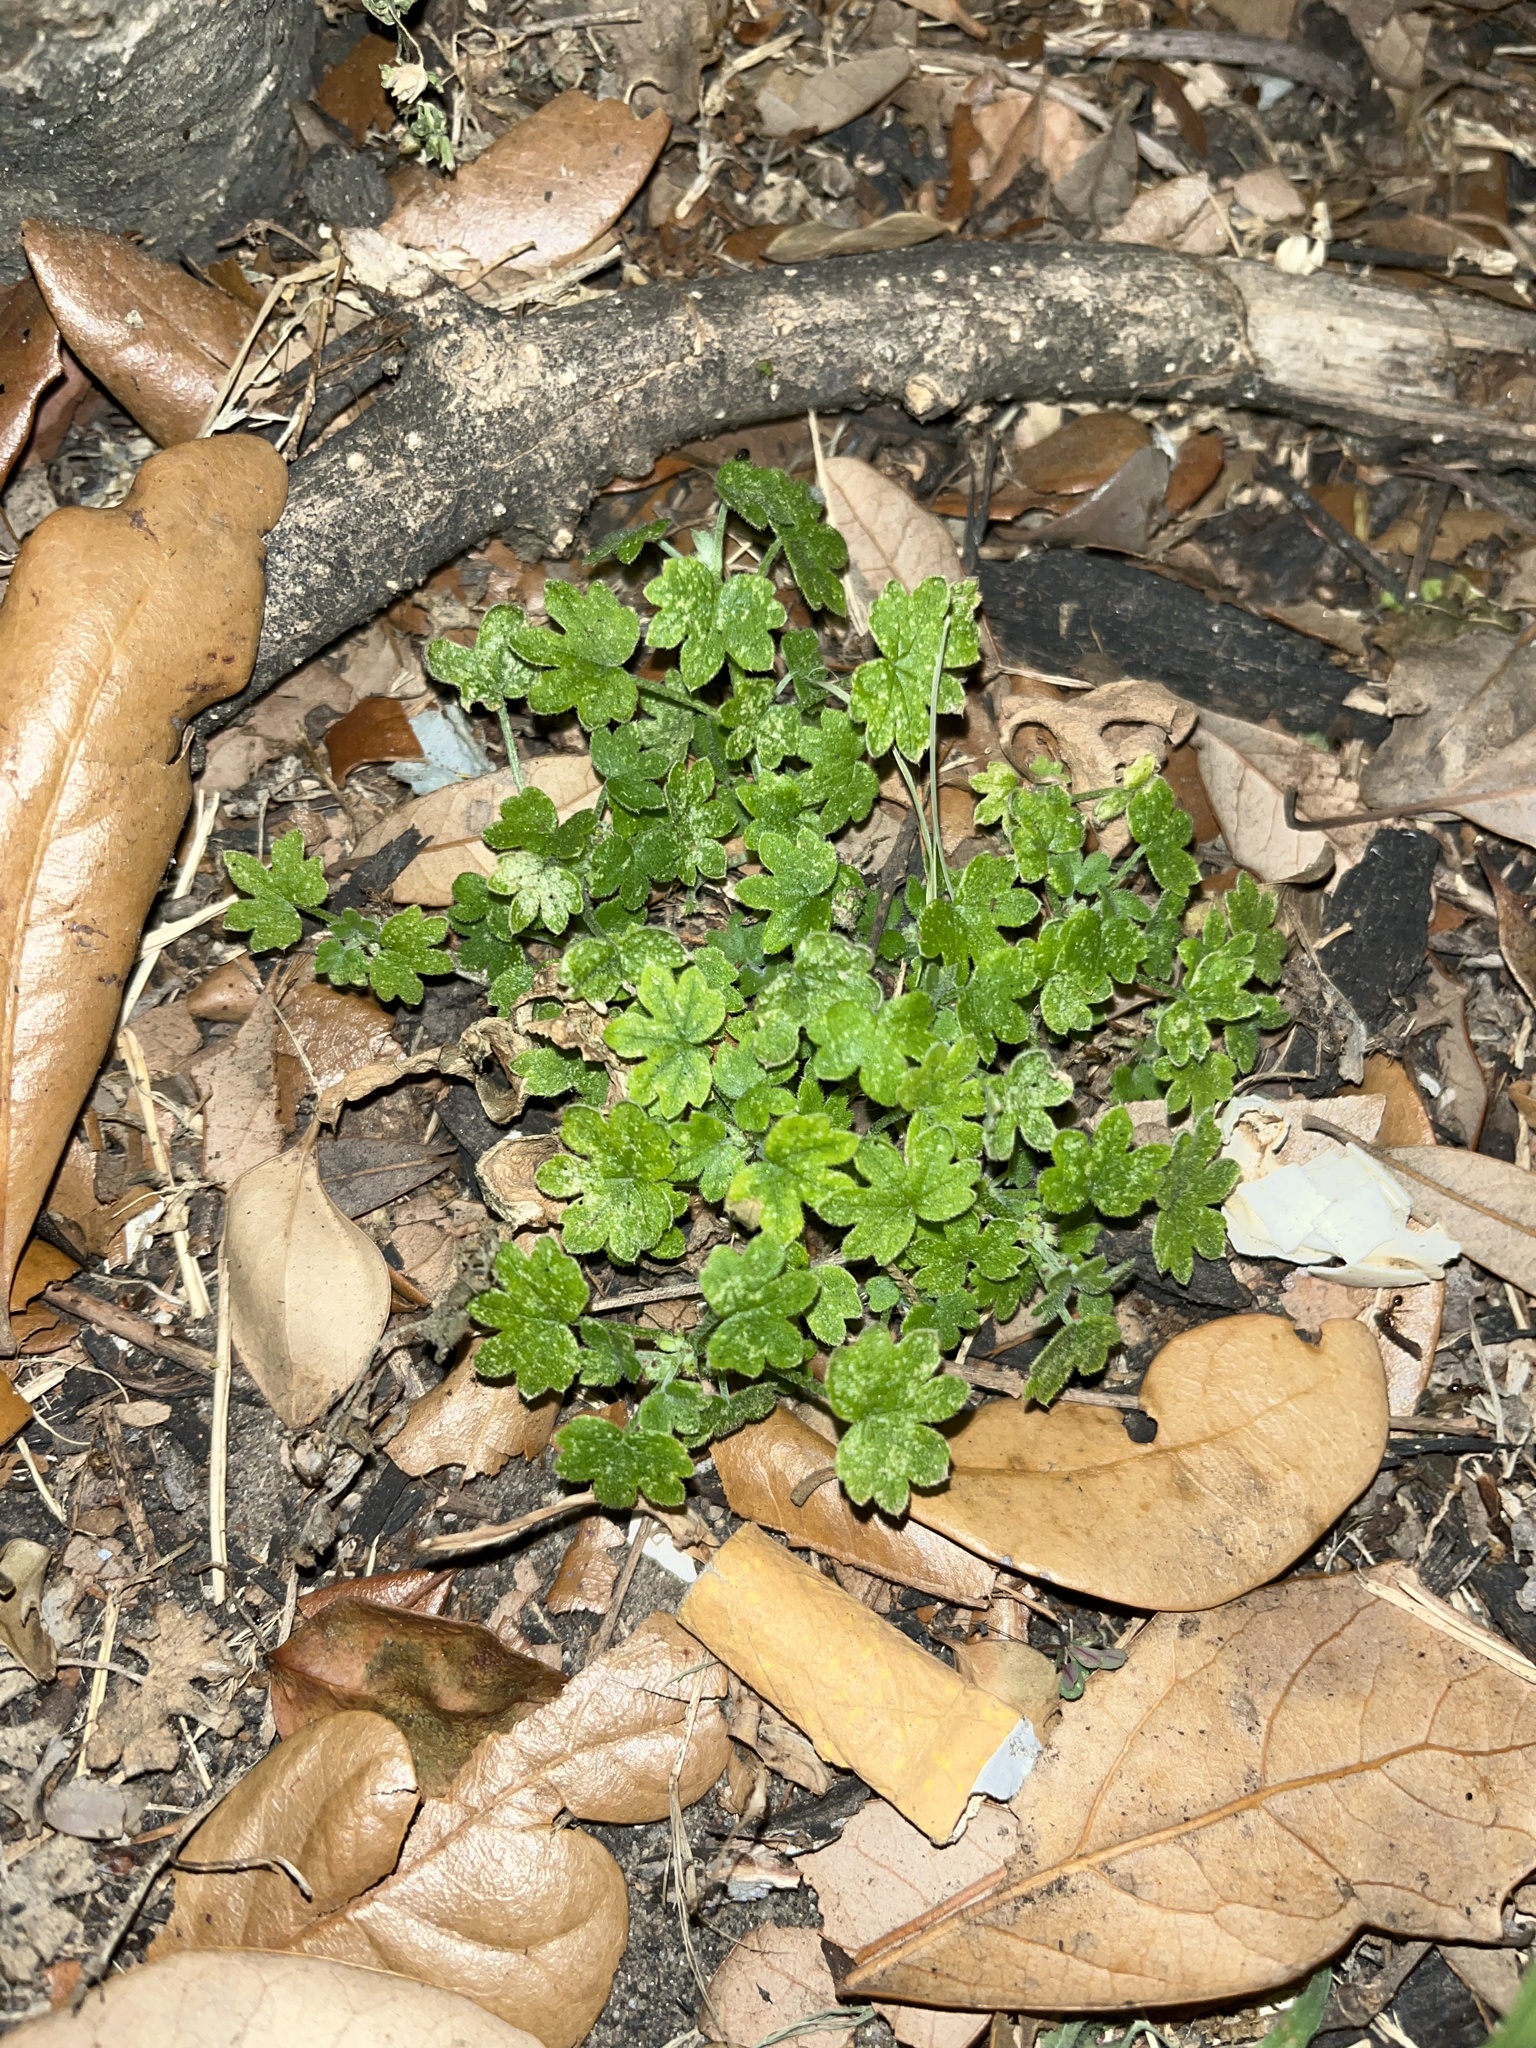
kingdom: Plantae
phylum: Tracheophyta
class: Magnoliopsida
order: Apiales
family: Apiaceae
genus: Bowlesia
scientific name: Bowlesia incana
